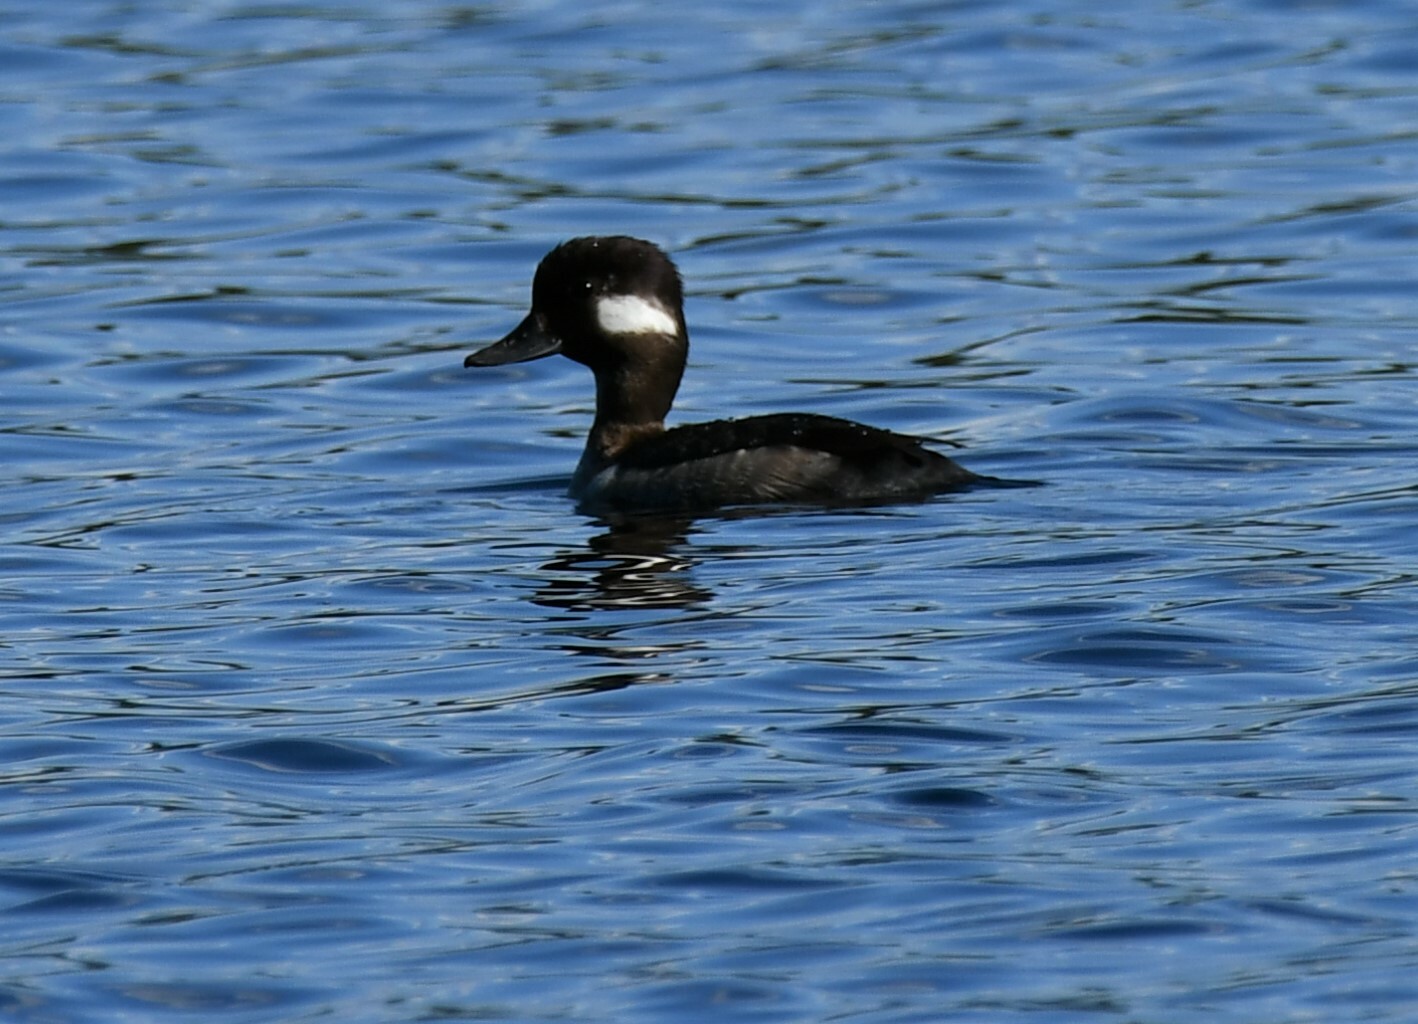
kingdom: Animalia
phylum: Chordata
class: Aves
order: Anseriformes
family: Anatidae
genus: Bucephala
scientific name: Bucephala albeola
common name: Bufflehead
